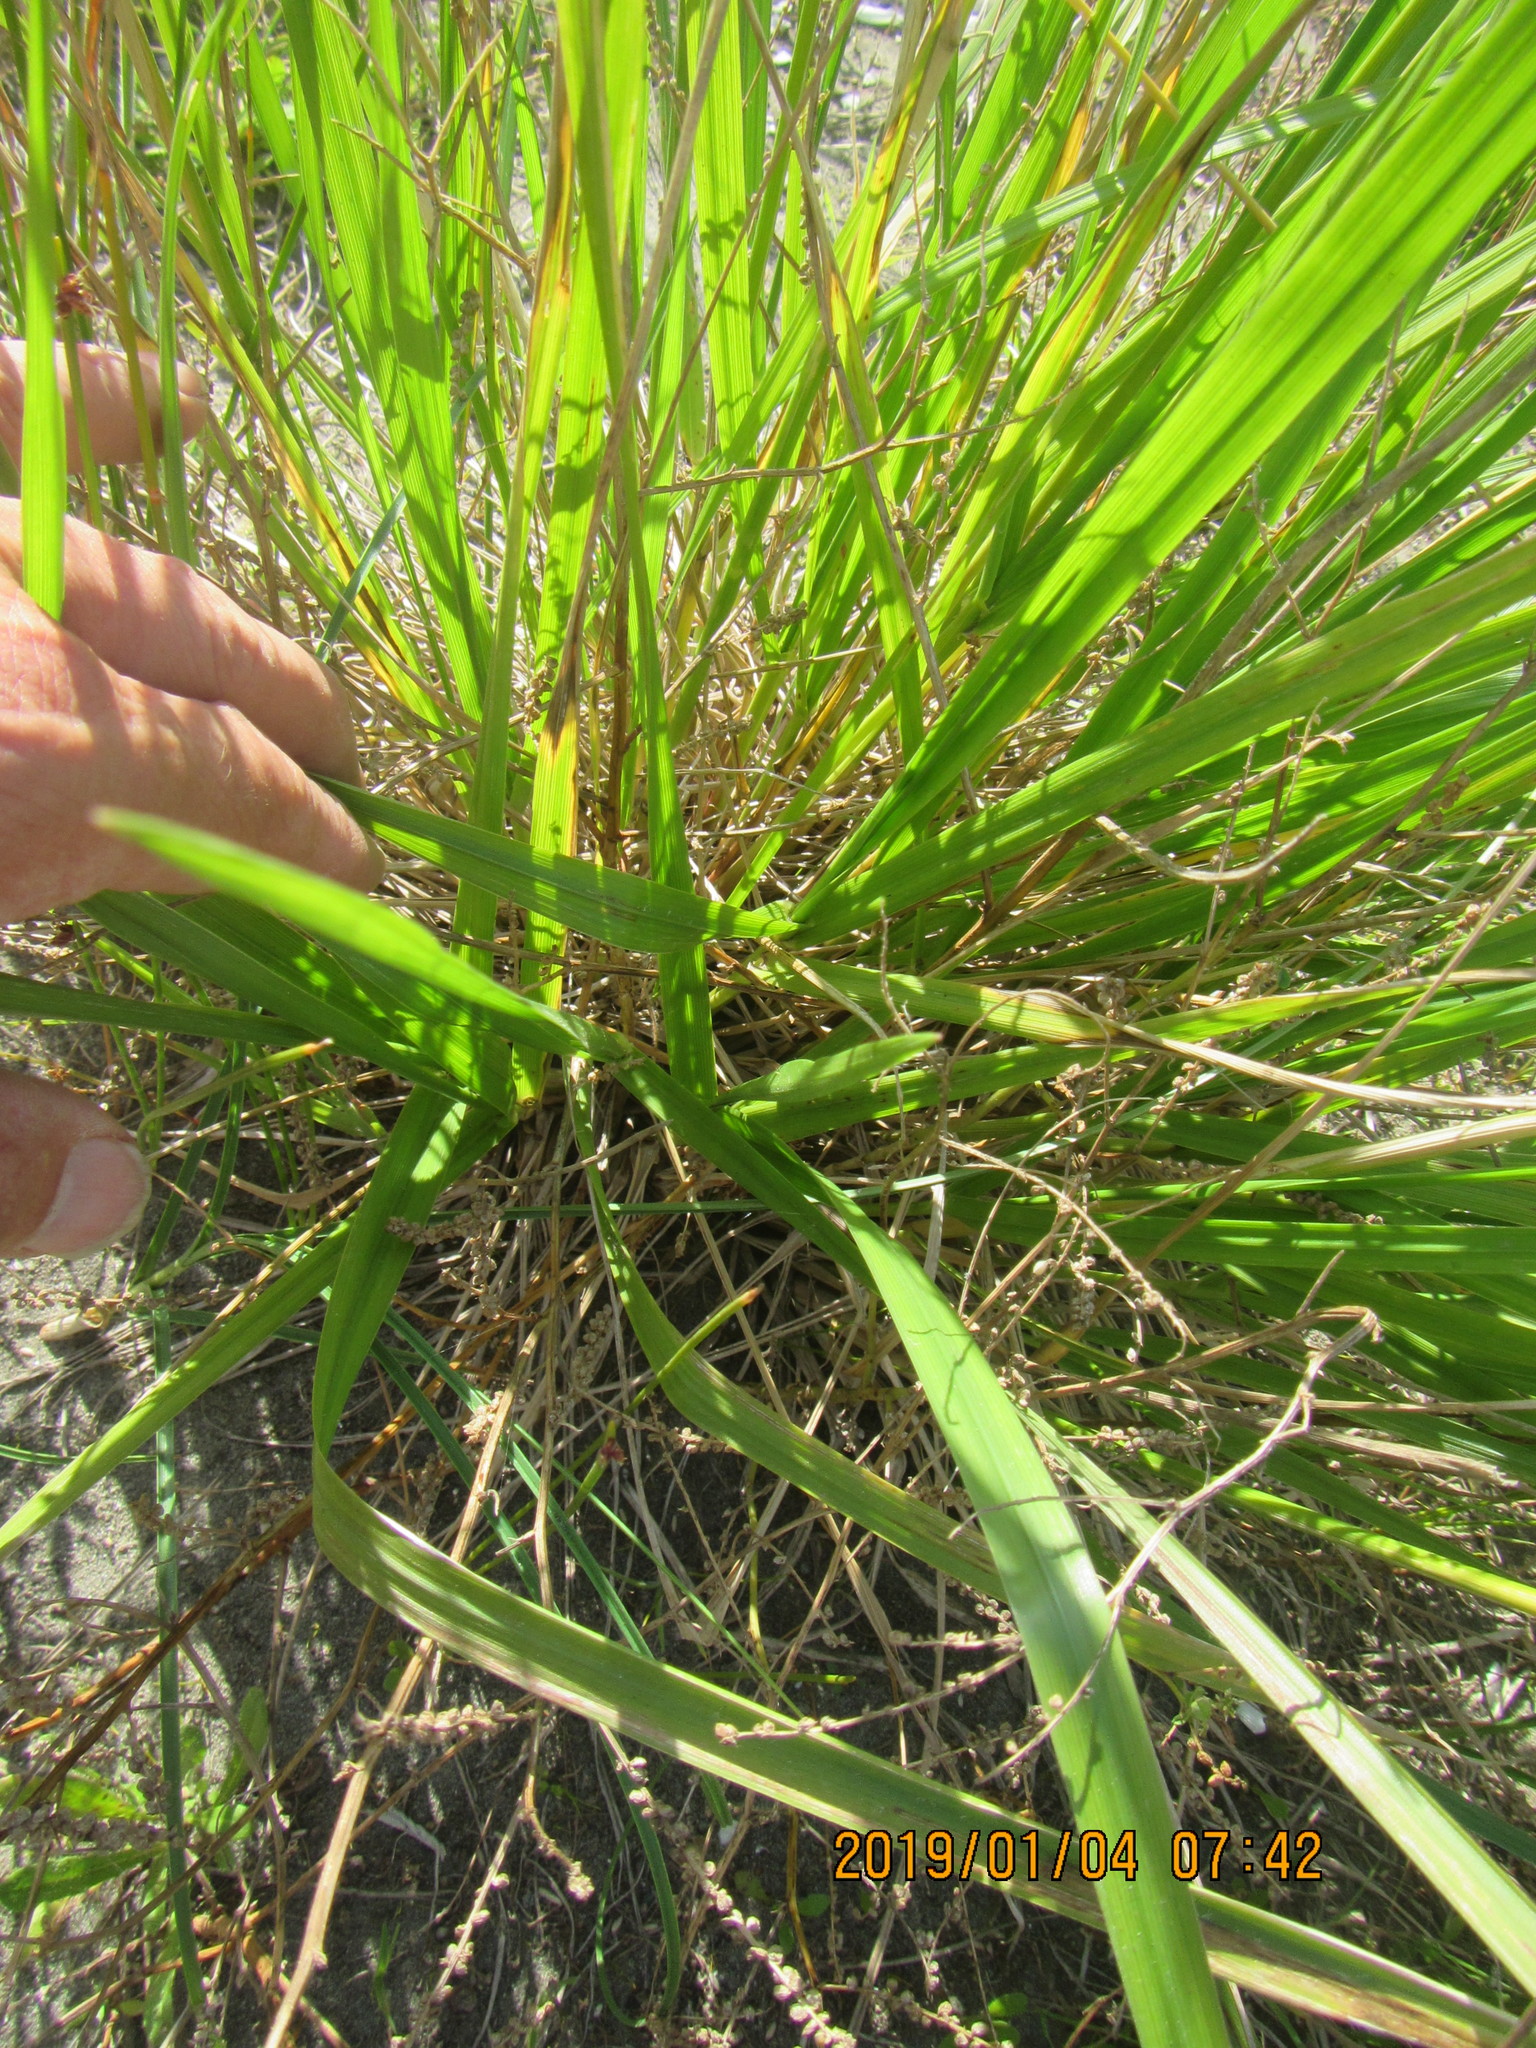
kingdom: Plantae
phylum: Tracheophyta
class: Liliopsida
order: Poales
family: Poaceae
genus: Lolium
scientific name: Lolium arundinaceum
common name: Reed fescue
